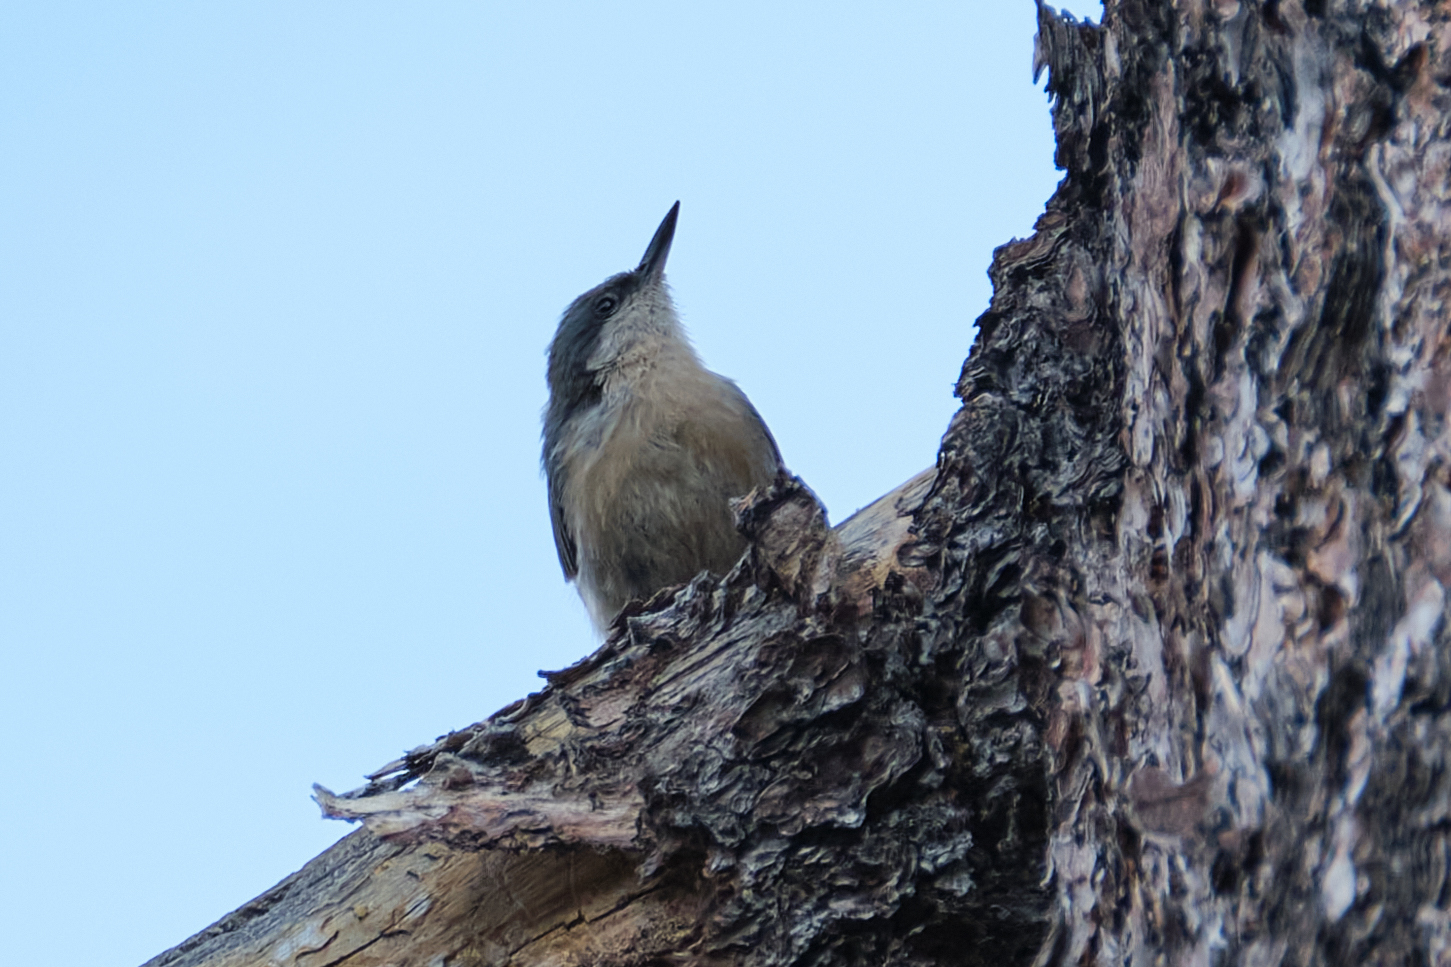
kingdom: Animalia
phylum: Chordata
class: Aves
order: Passeriformes
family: Sittidae
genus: Sitta
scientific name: Sitta pygmaea
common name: Pygmy nuthatch
